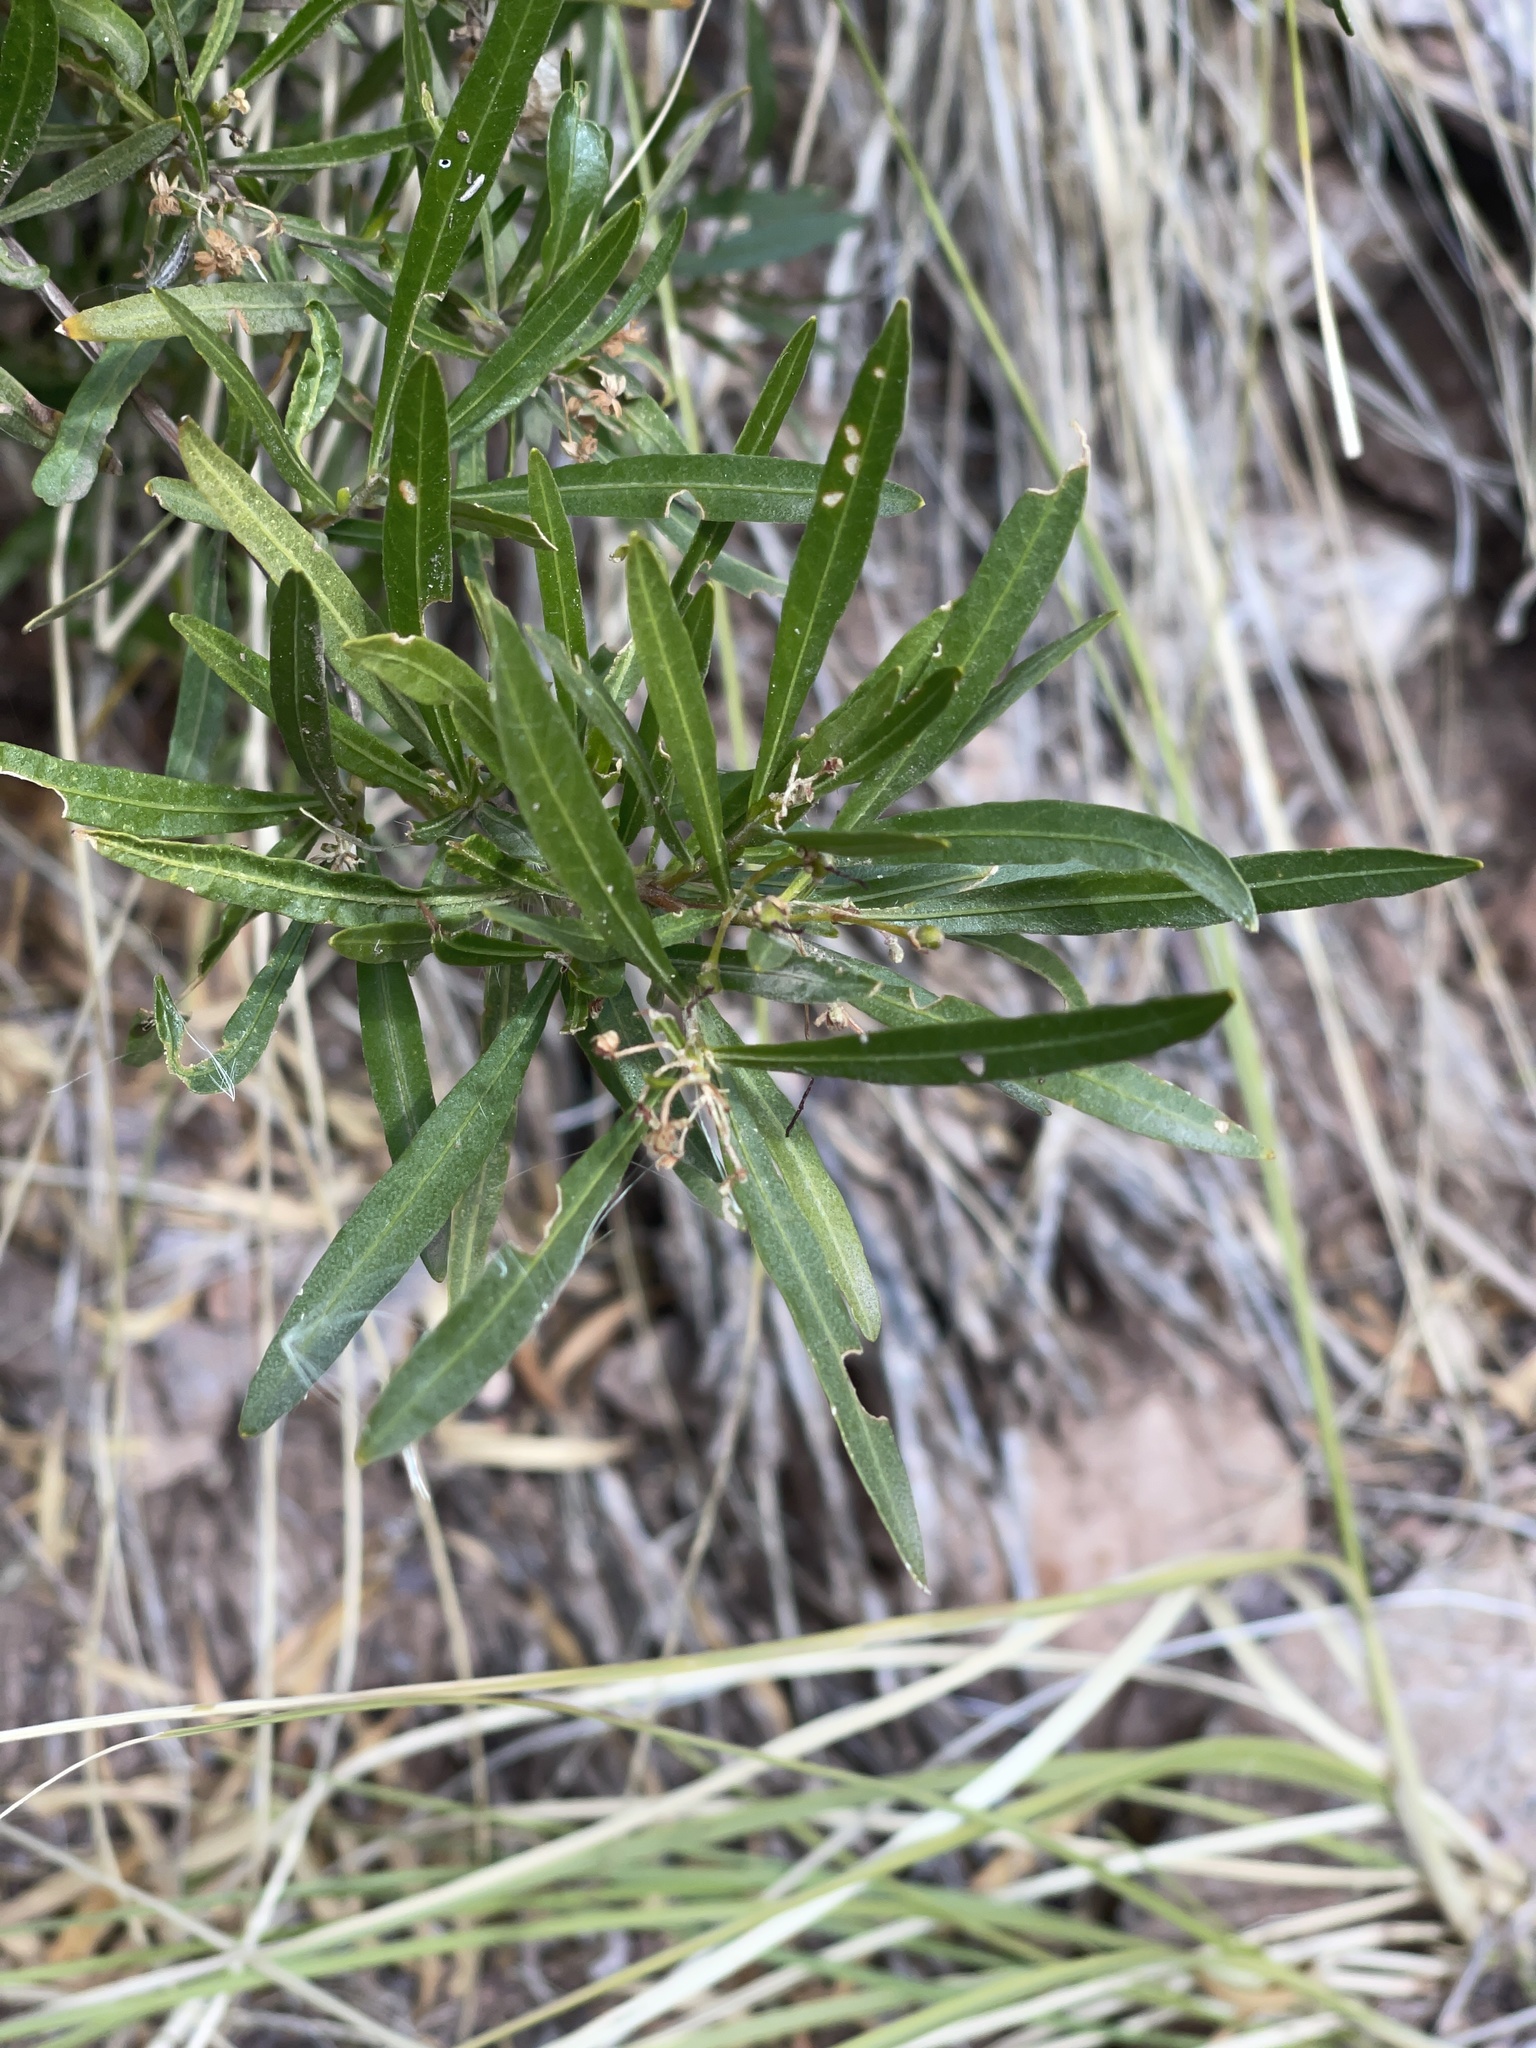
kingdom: Plantae
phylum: Tracheophyta
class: Magnoliopsida
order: Sapindales
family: Sapindaceae
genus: Dodonaea
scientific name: Dodonaea viscosa
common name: Hopbush
